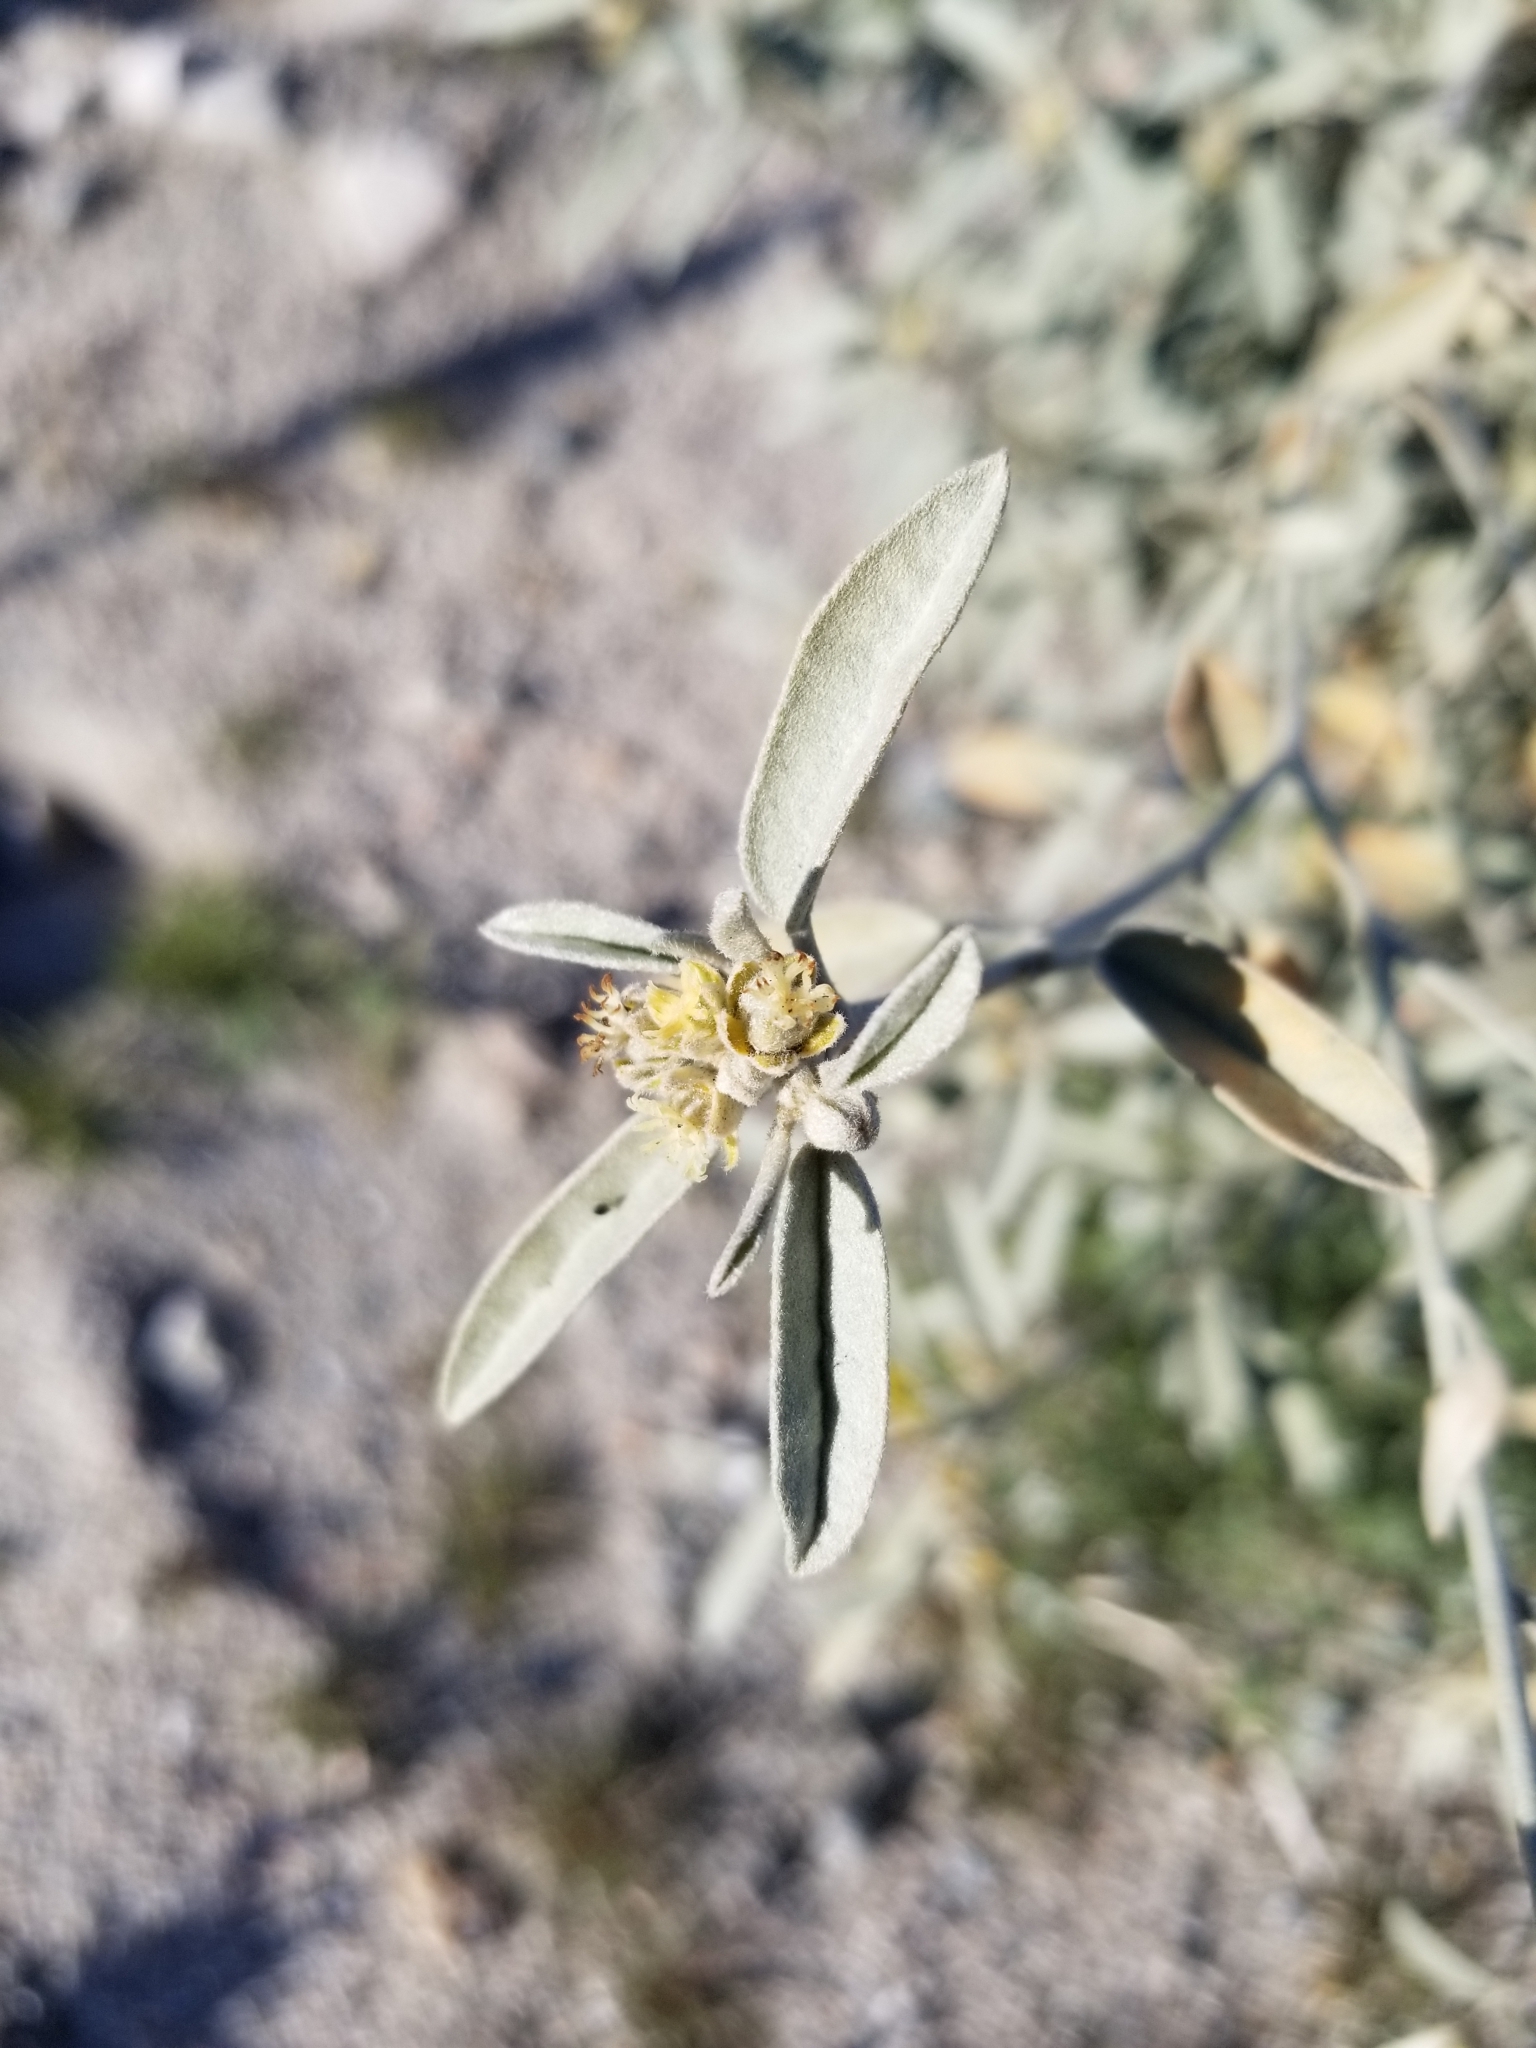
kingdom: Plantae
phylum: Tracheophyta
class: Magnoliopsida
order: Malpighiales
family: Euphorbiaceae
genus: Croton
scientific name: Croton californicus
